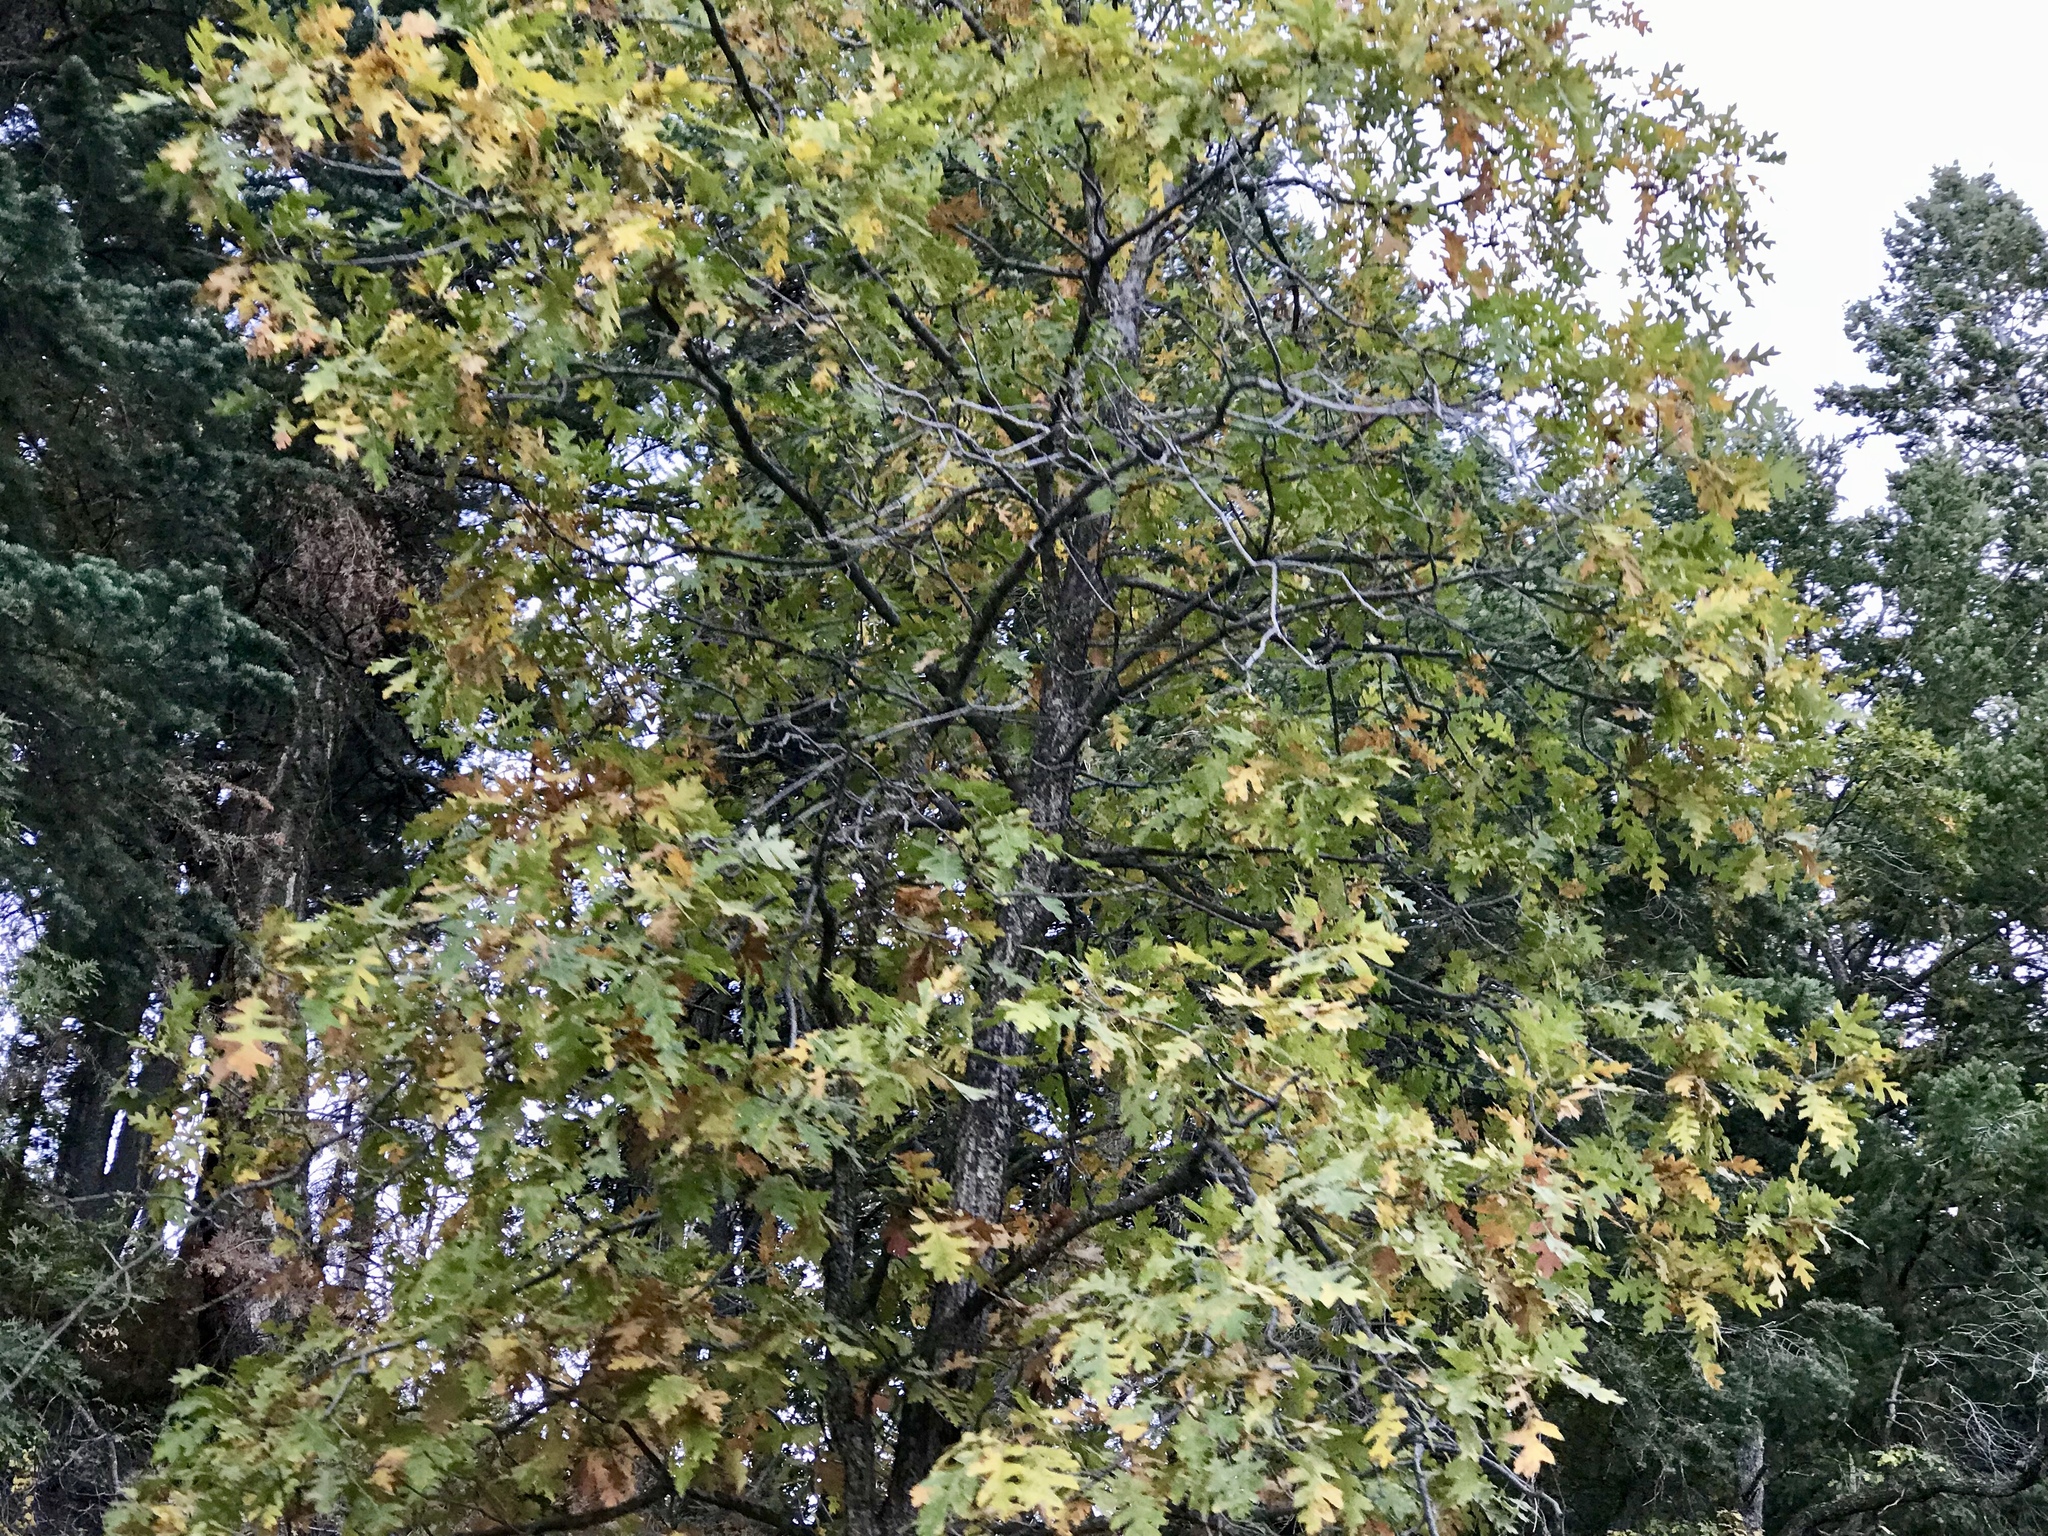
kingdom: Plantae
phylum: Tracheophyta
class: Magnoliopsida
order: Fagales
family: Fagaceae
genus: Quercus
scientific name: Quercus gambelii
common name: Gambel oak
